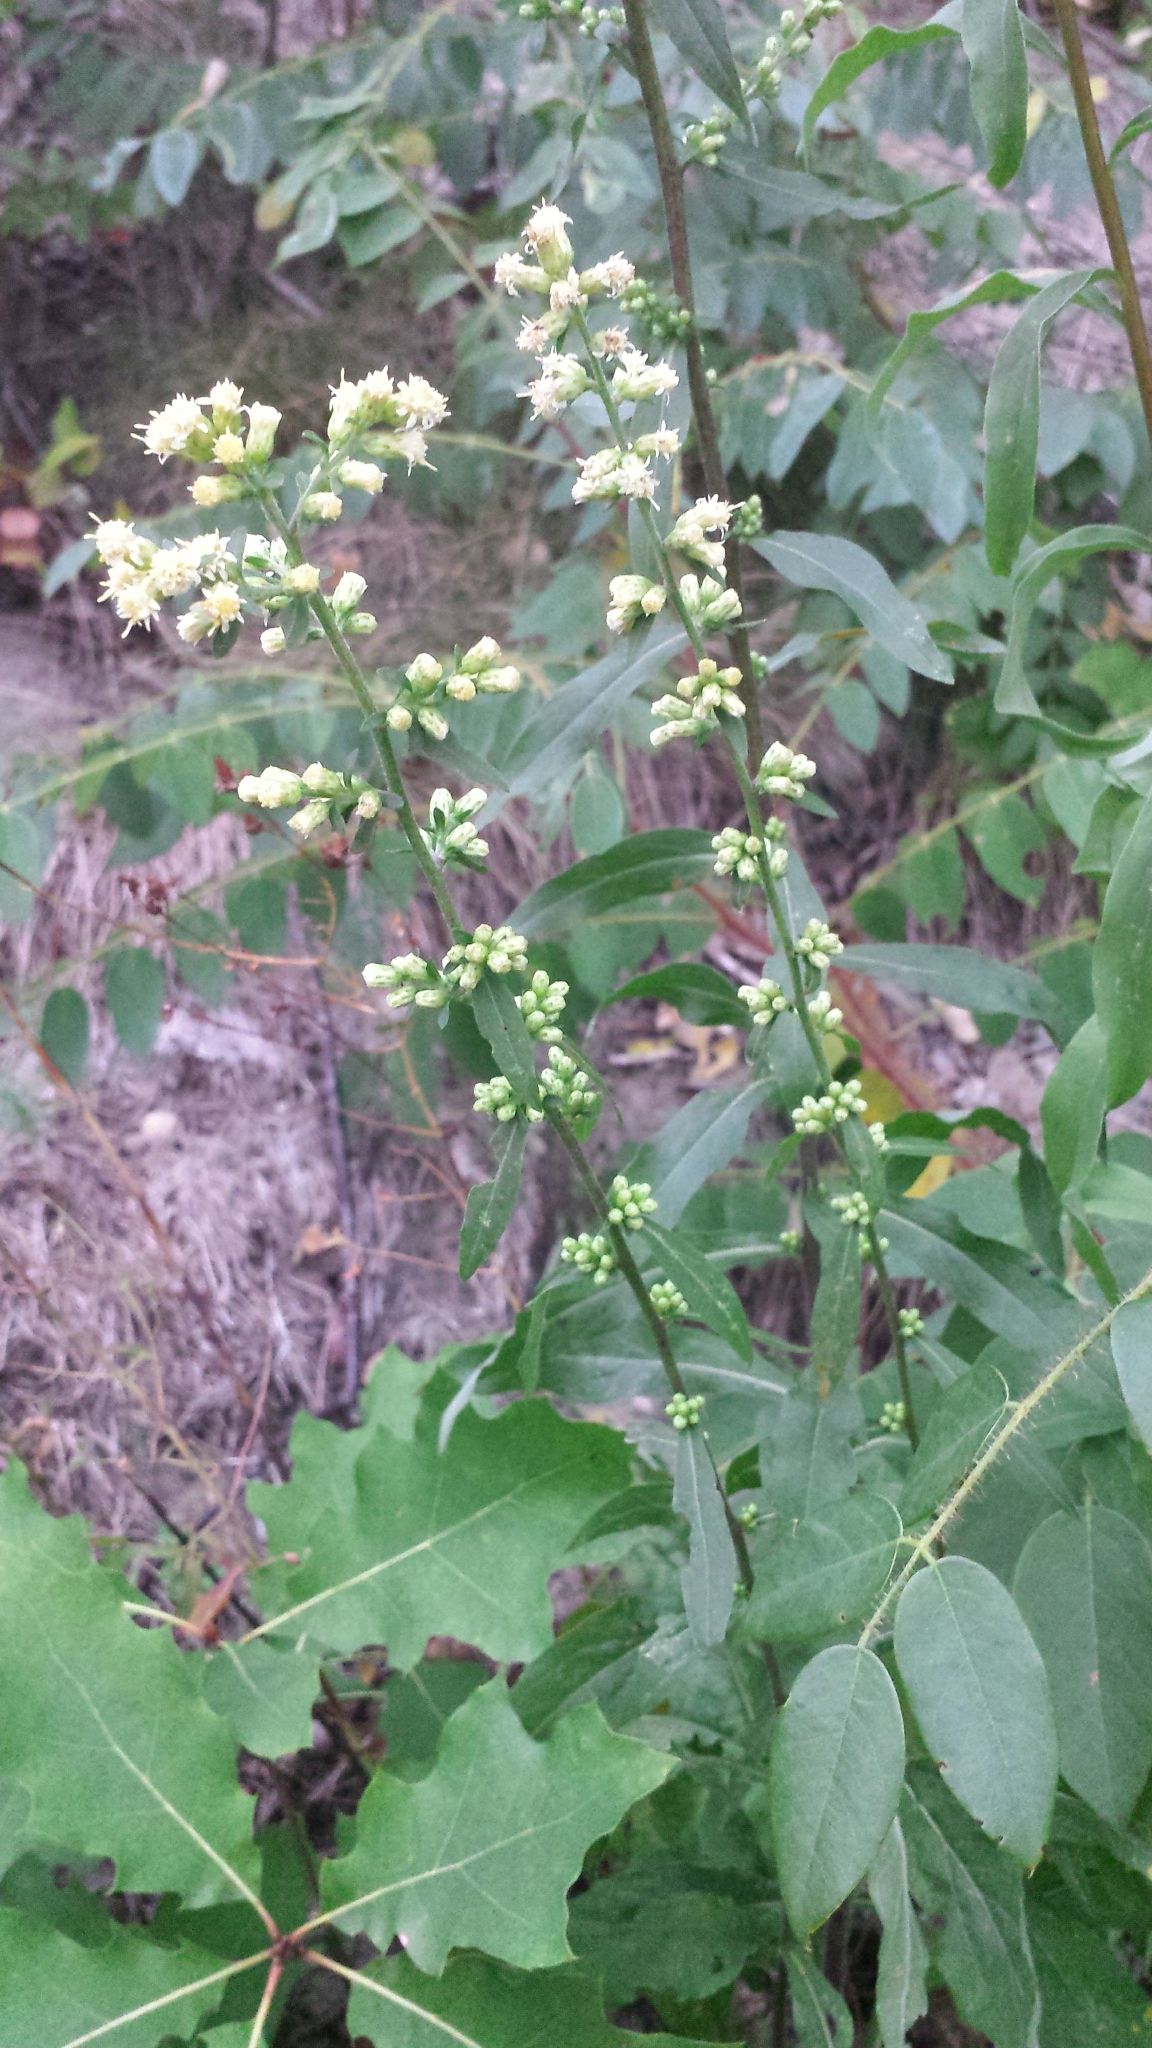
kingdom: Plantae
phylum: Tracheophyta
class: Magnoliopsida
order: Asterales
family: Asteraceae
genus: Solidago
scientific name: Solidago bicolor
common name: Silverrod
